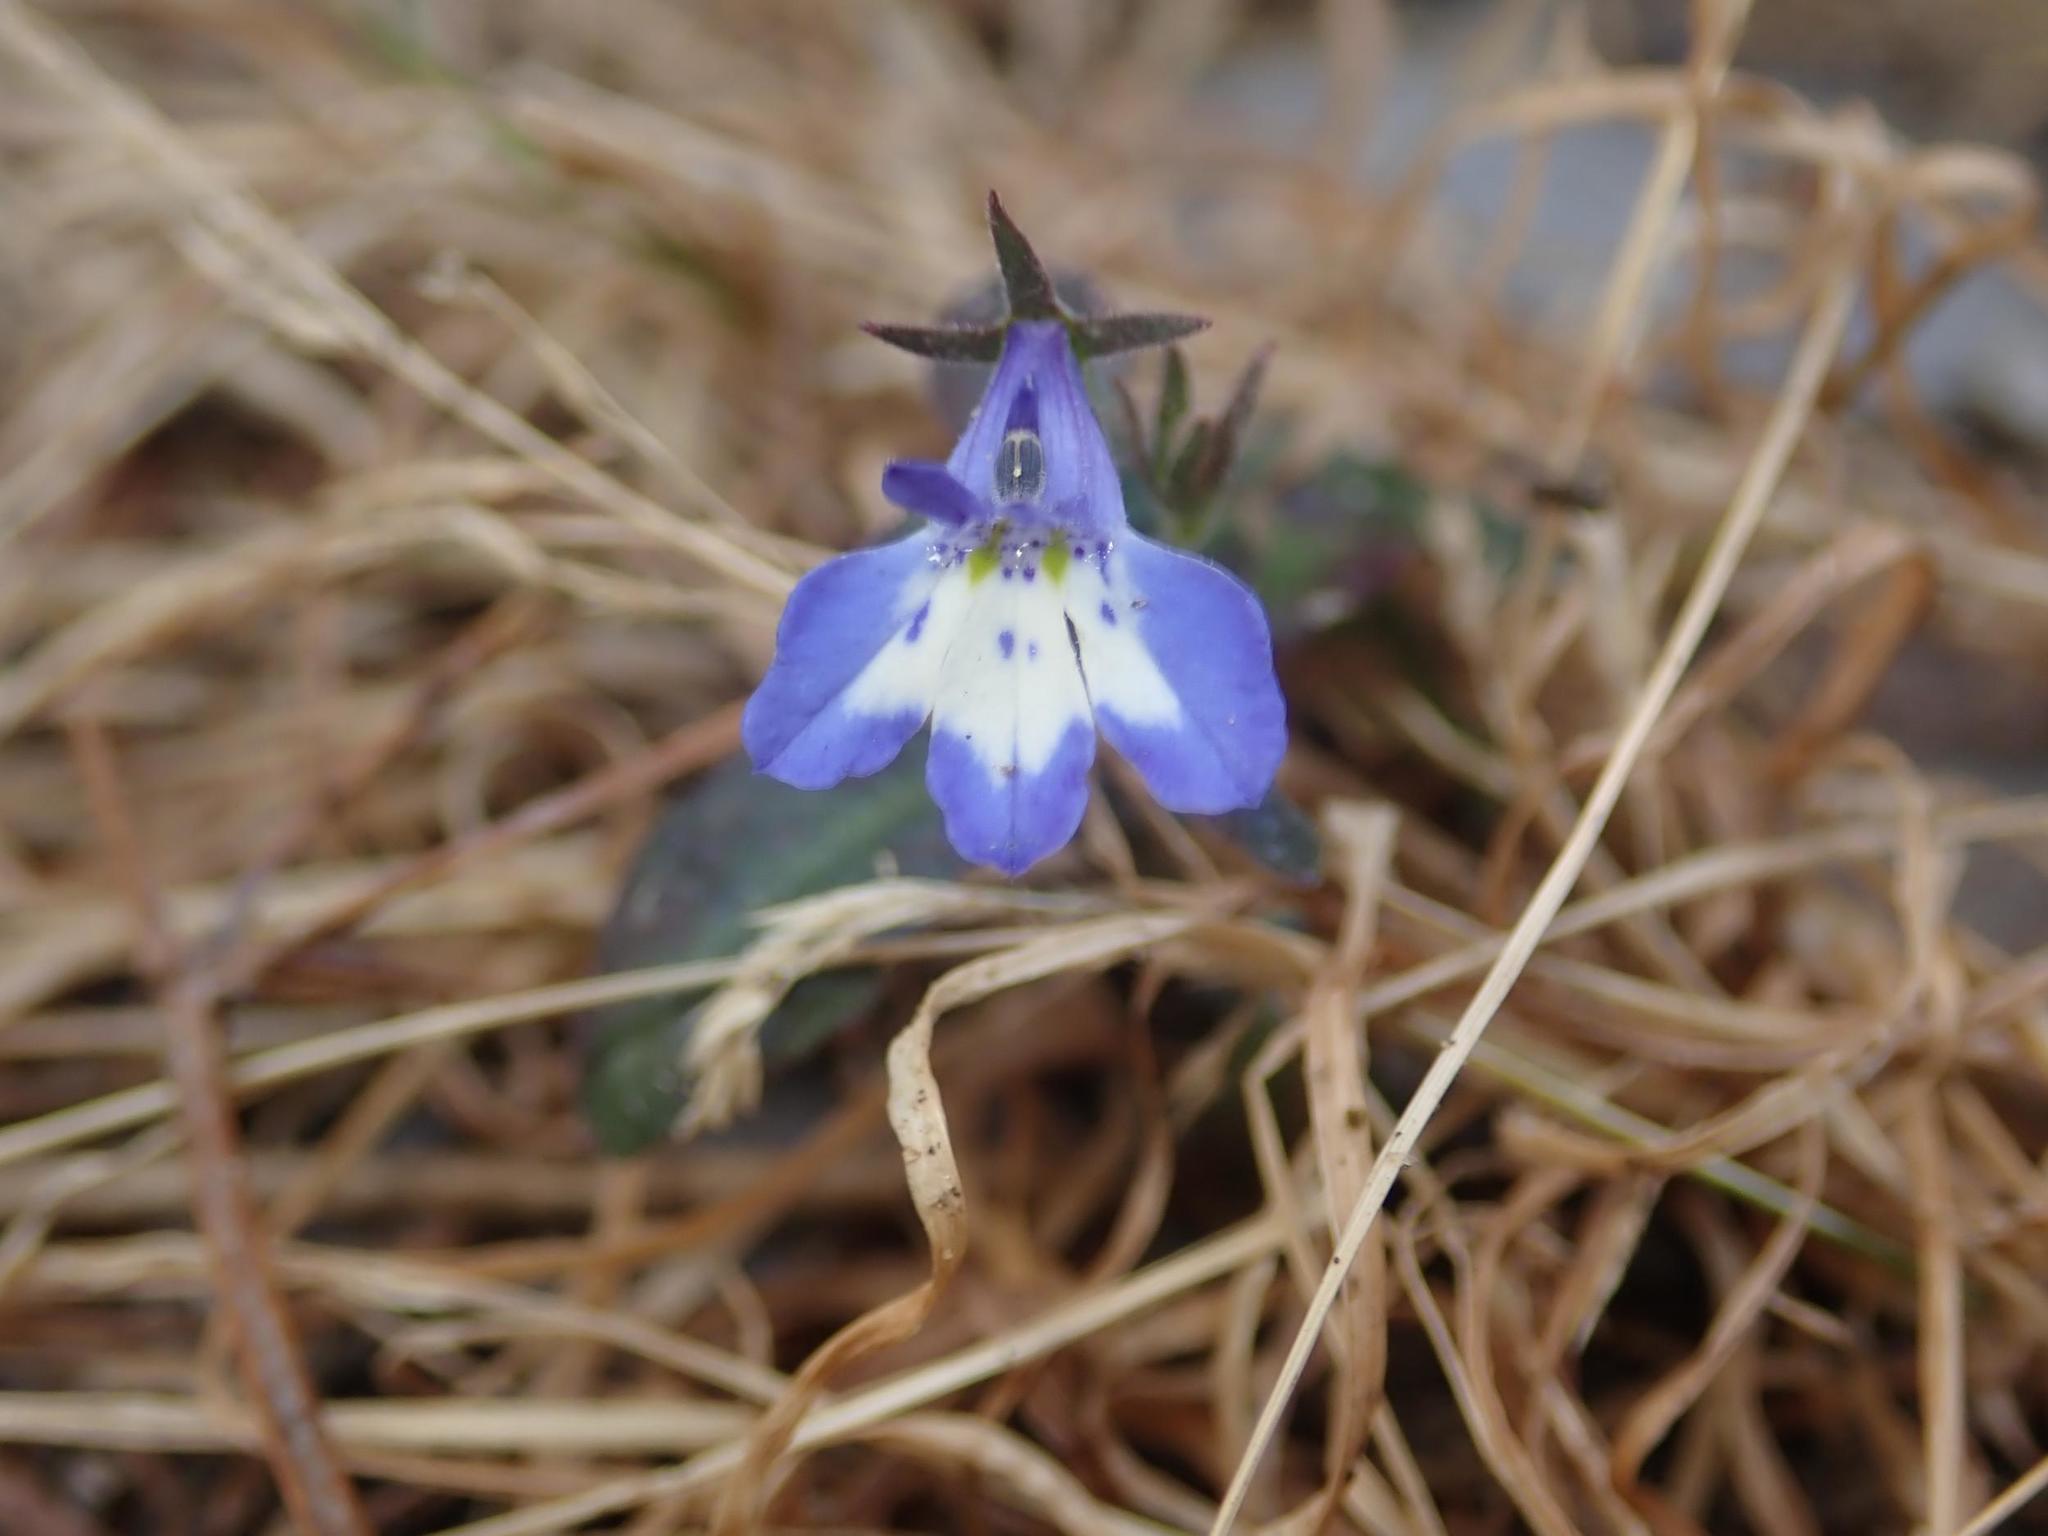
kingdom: Plantae
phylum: Tracheophyta
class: Magnoliopsida
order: Asterales
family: Campanulaceae
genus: Lobelia
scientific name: Lobelia erinus
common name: Edging lobelia
